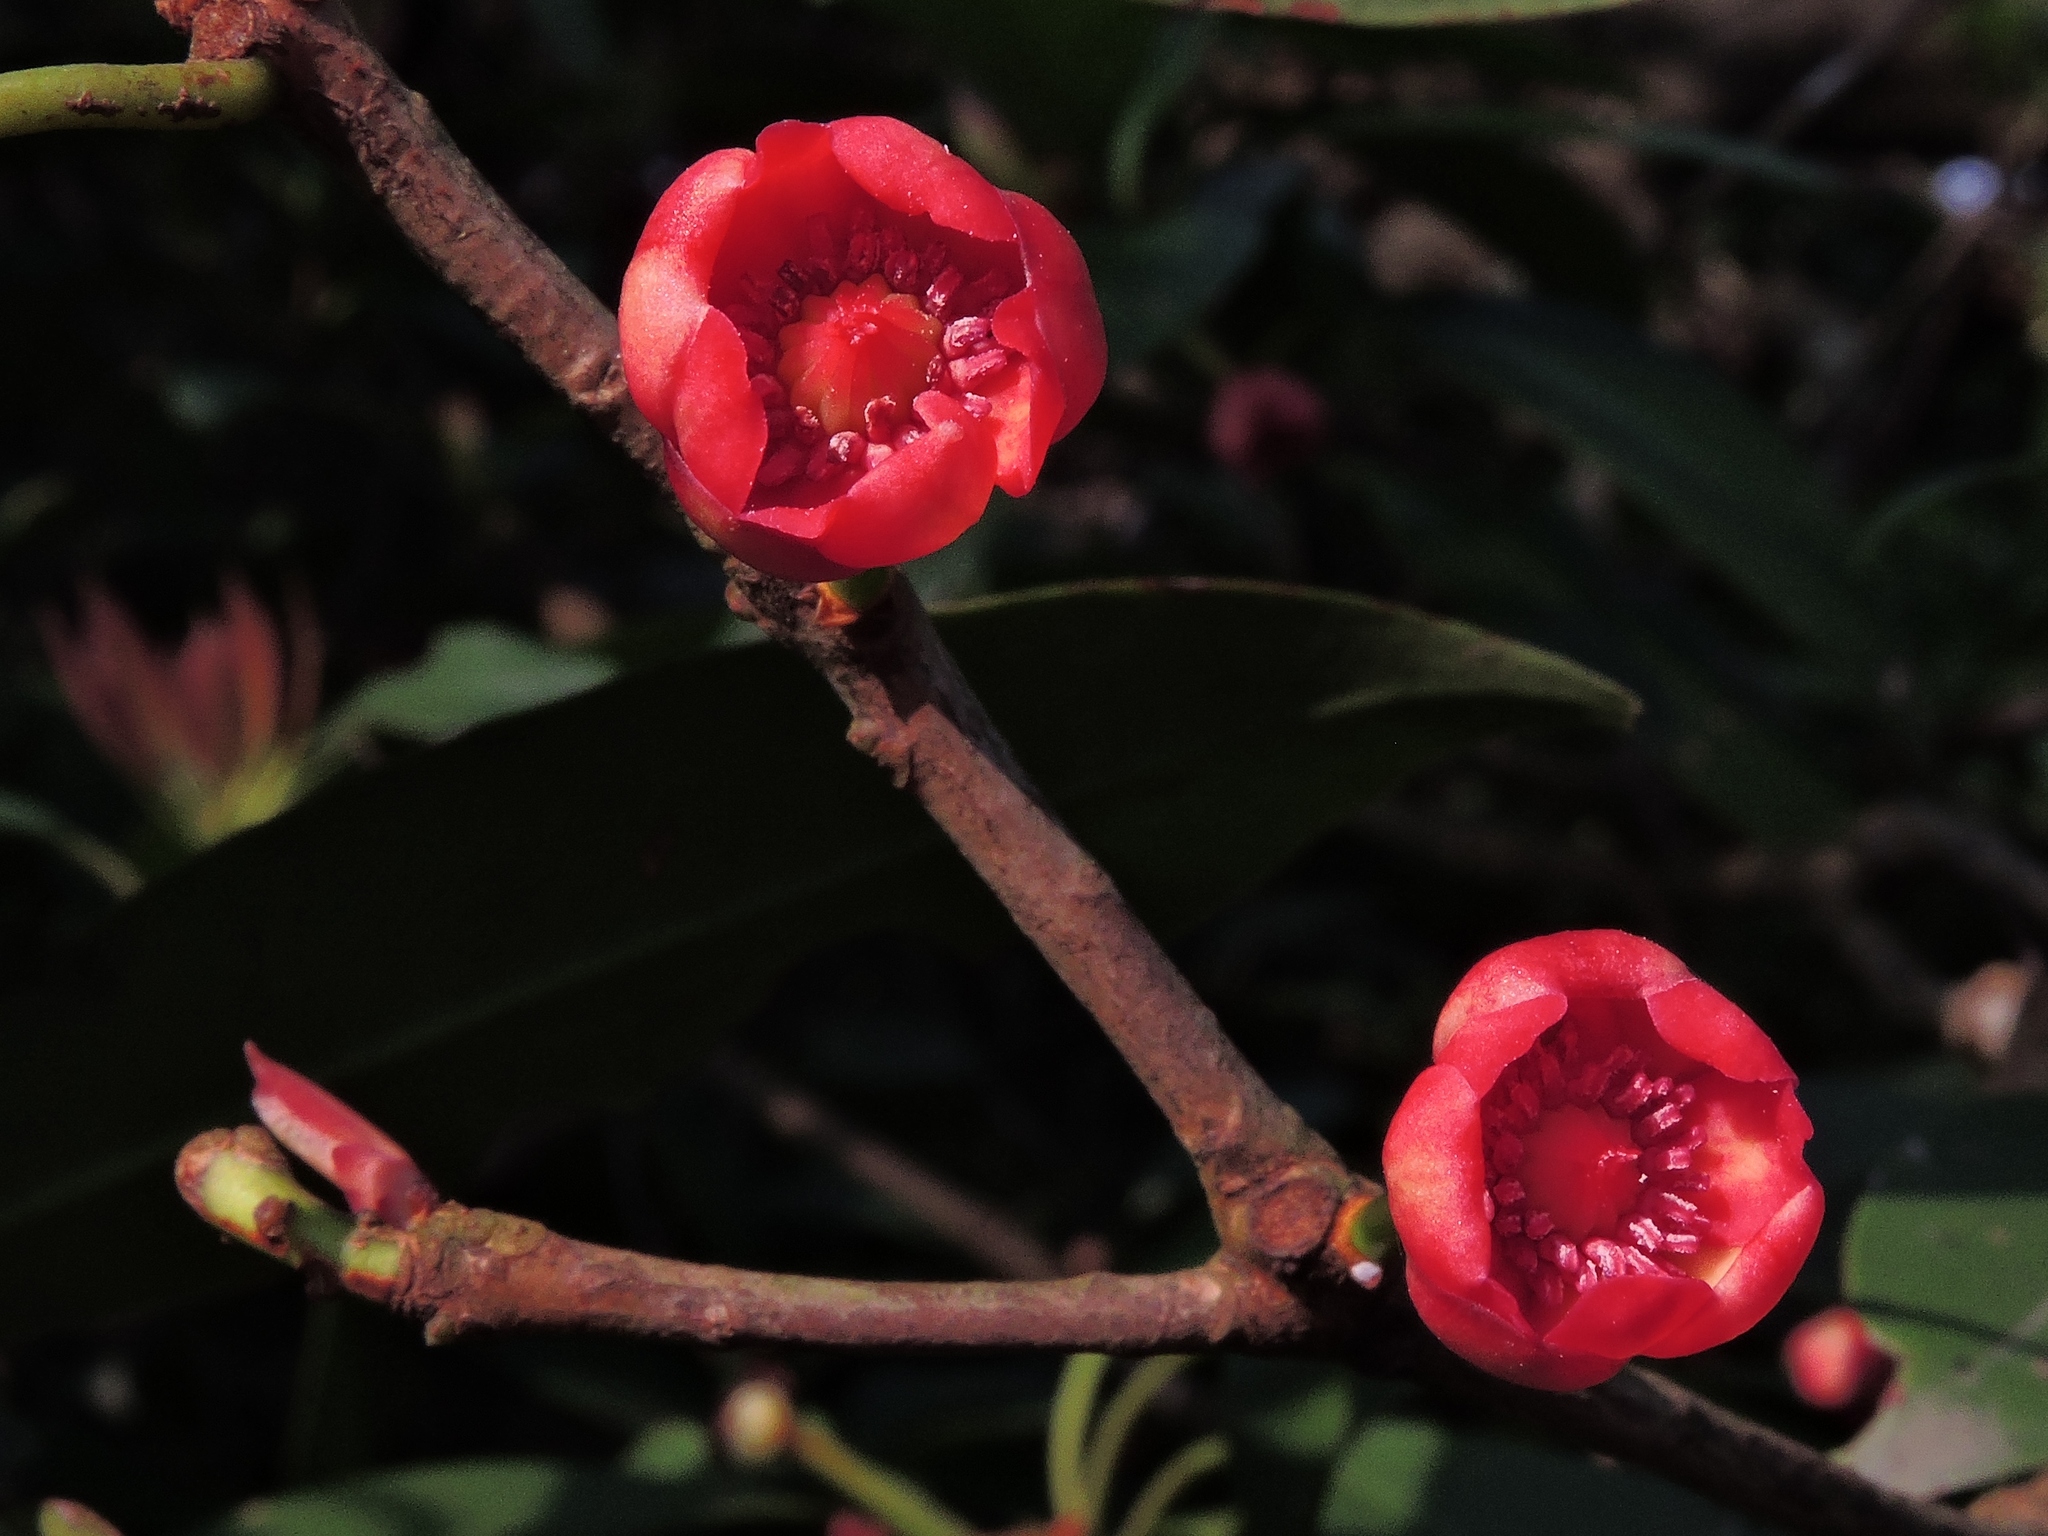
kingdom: Plantae
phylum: Tracheophyta
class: Magnoliopsida
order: Austrobaileyales
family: Schisandraceae
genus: Illicium
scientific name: Illicium arborescens
